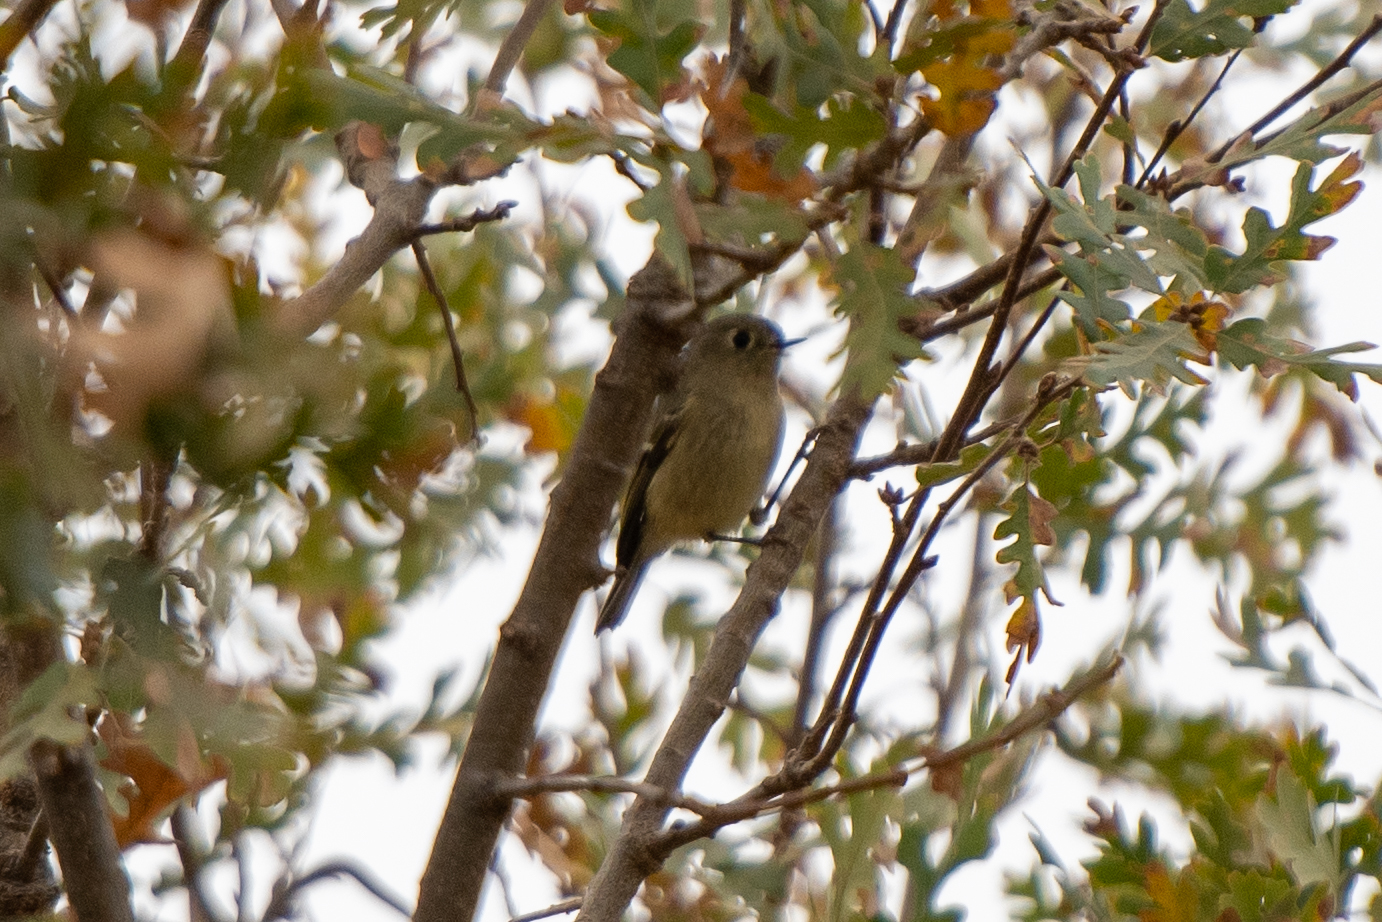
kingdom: Animalia
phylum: Chordata
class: Aves
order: Passeriformes
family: Regulidae
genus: Regulus
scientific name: Regulus calendula
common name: Ruby-crowned kinglet
